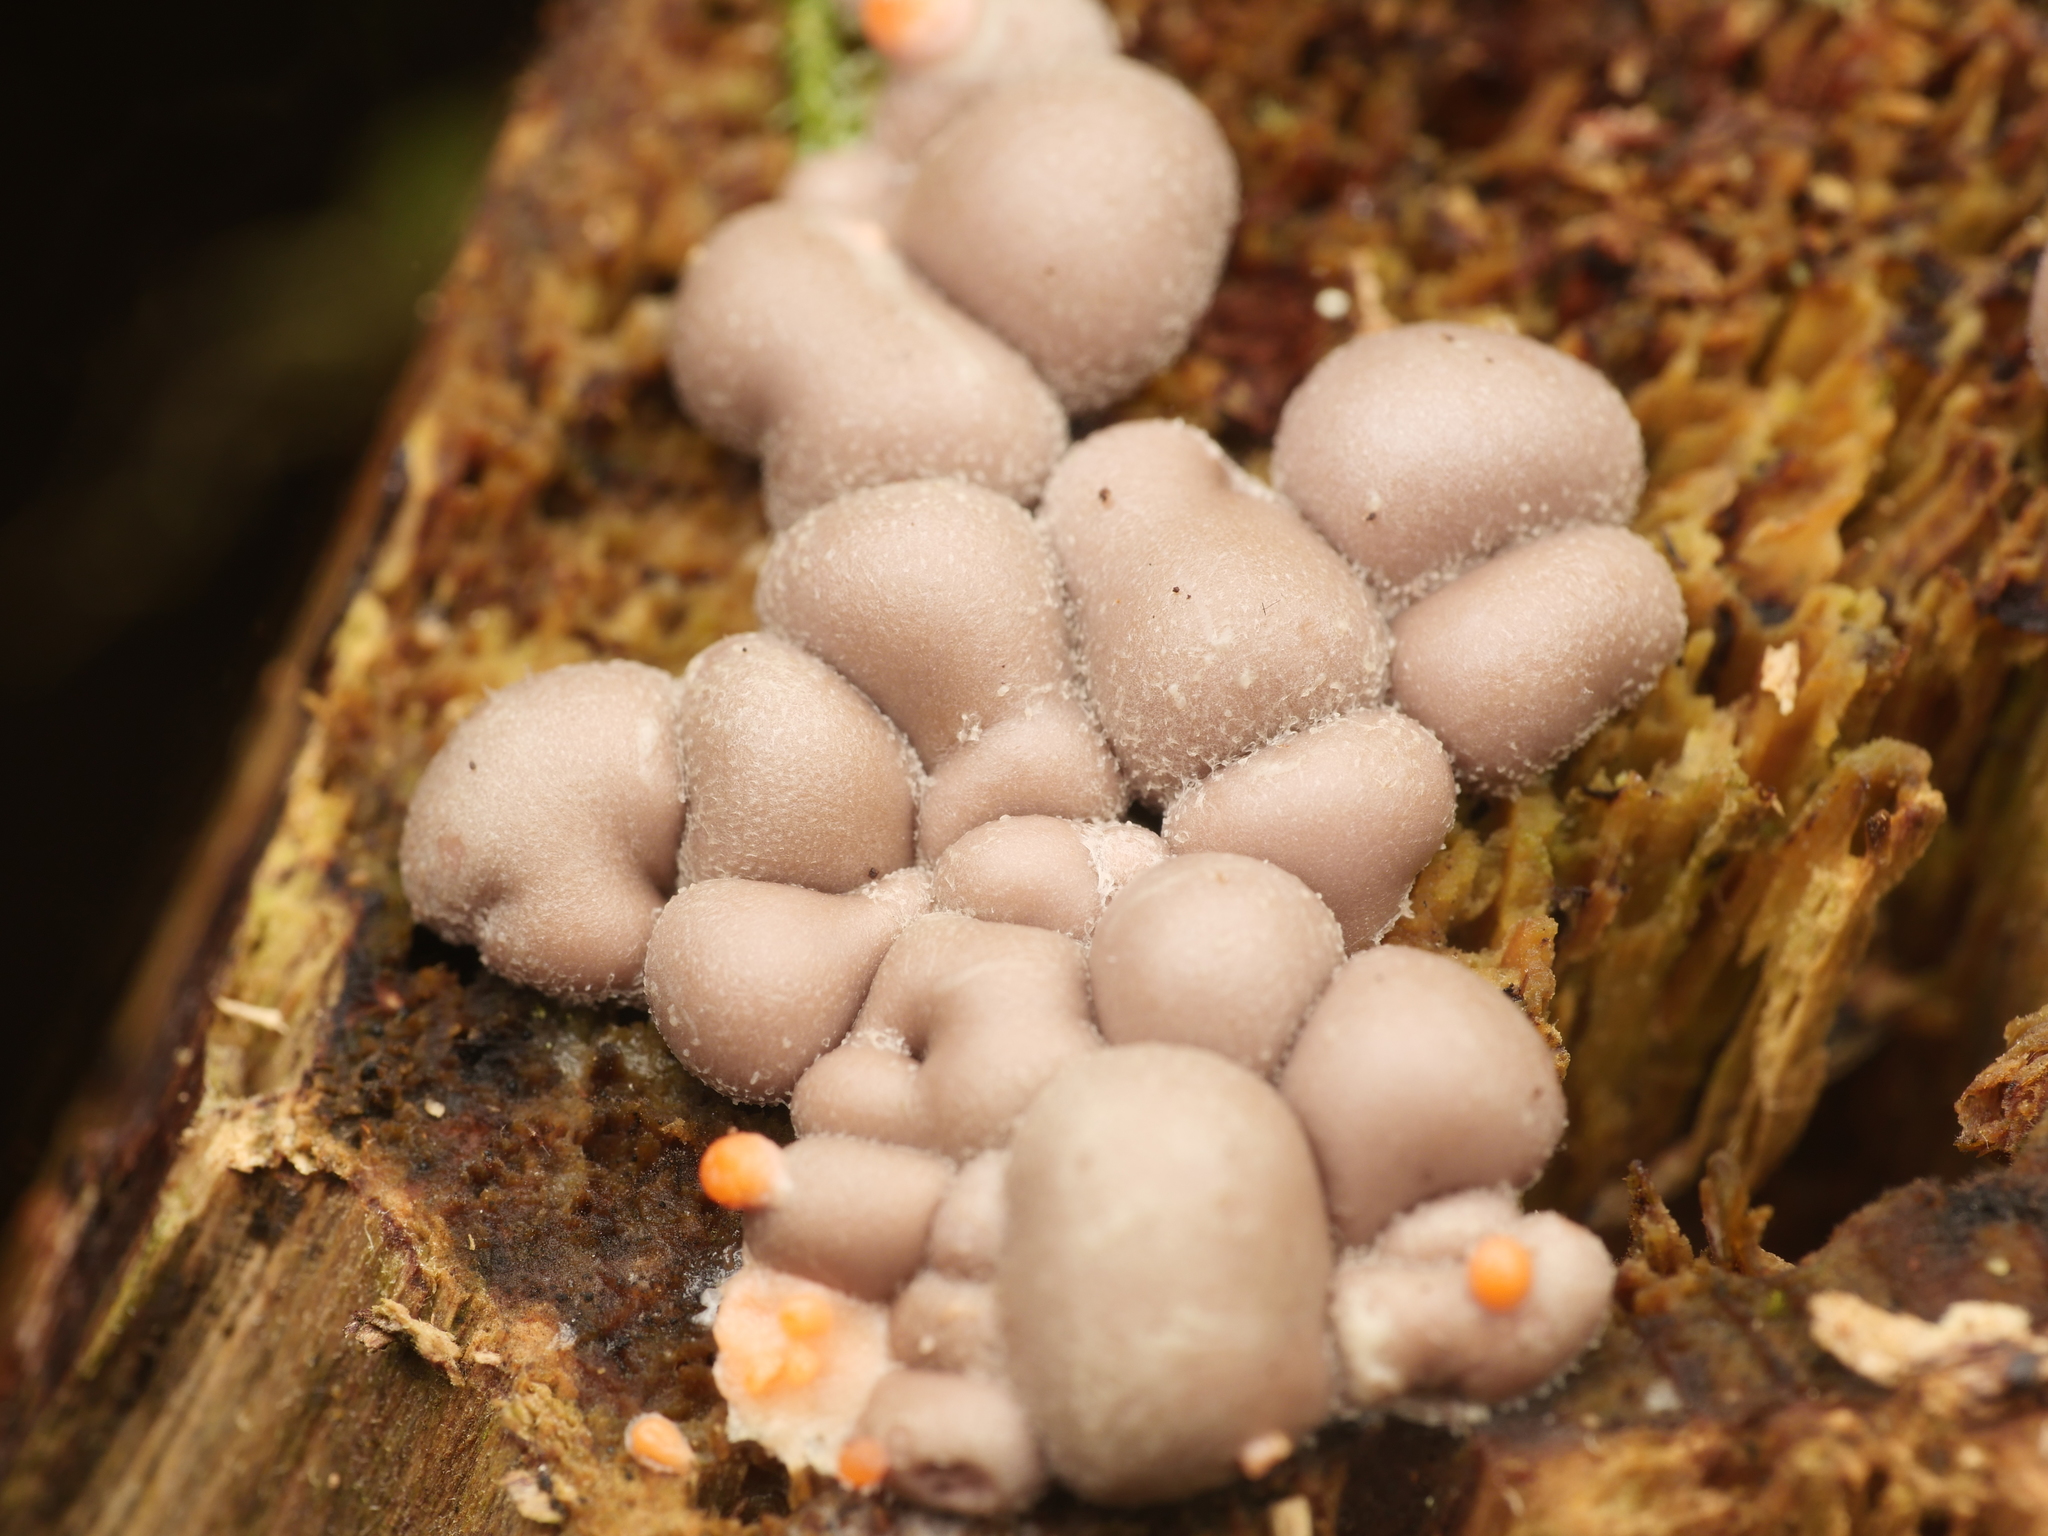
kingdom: Protozoa
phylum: Mycetozoa
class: Myxomycetes
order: Cribrariales
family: Tubiferaceae
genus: Lycogala
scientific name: Lycogala epidendrum
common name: Wolf's milk
